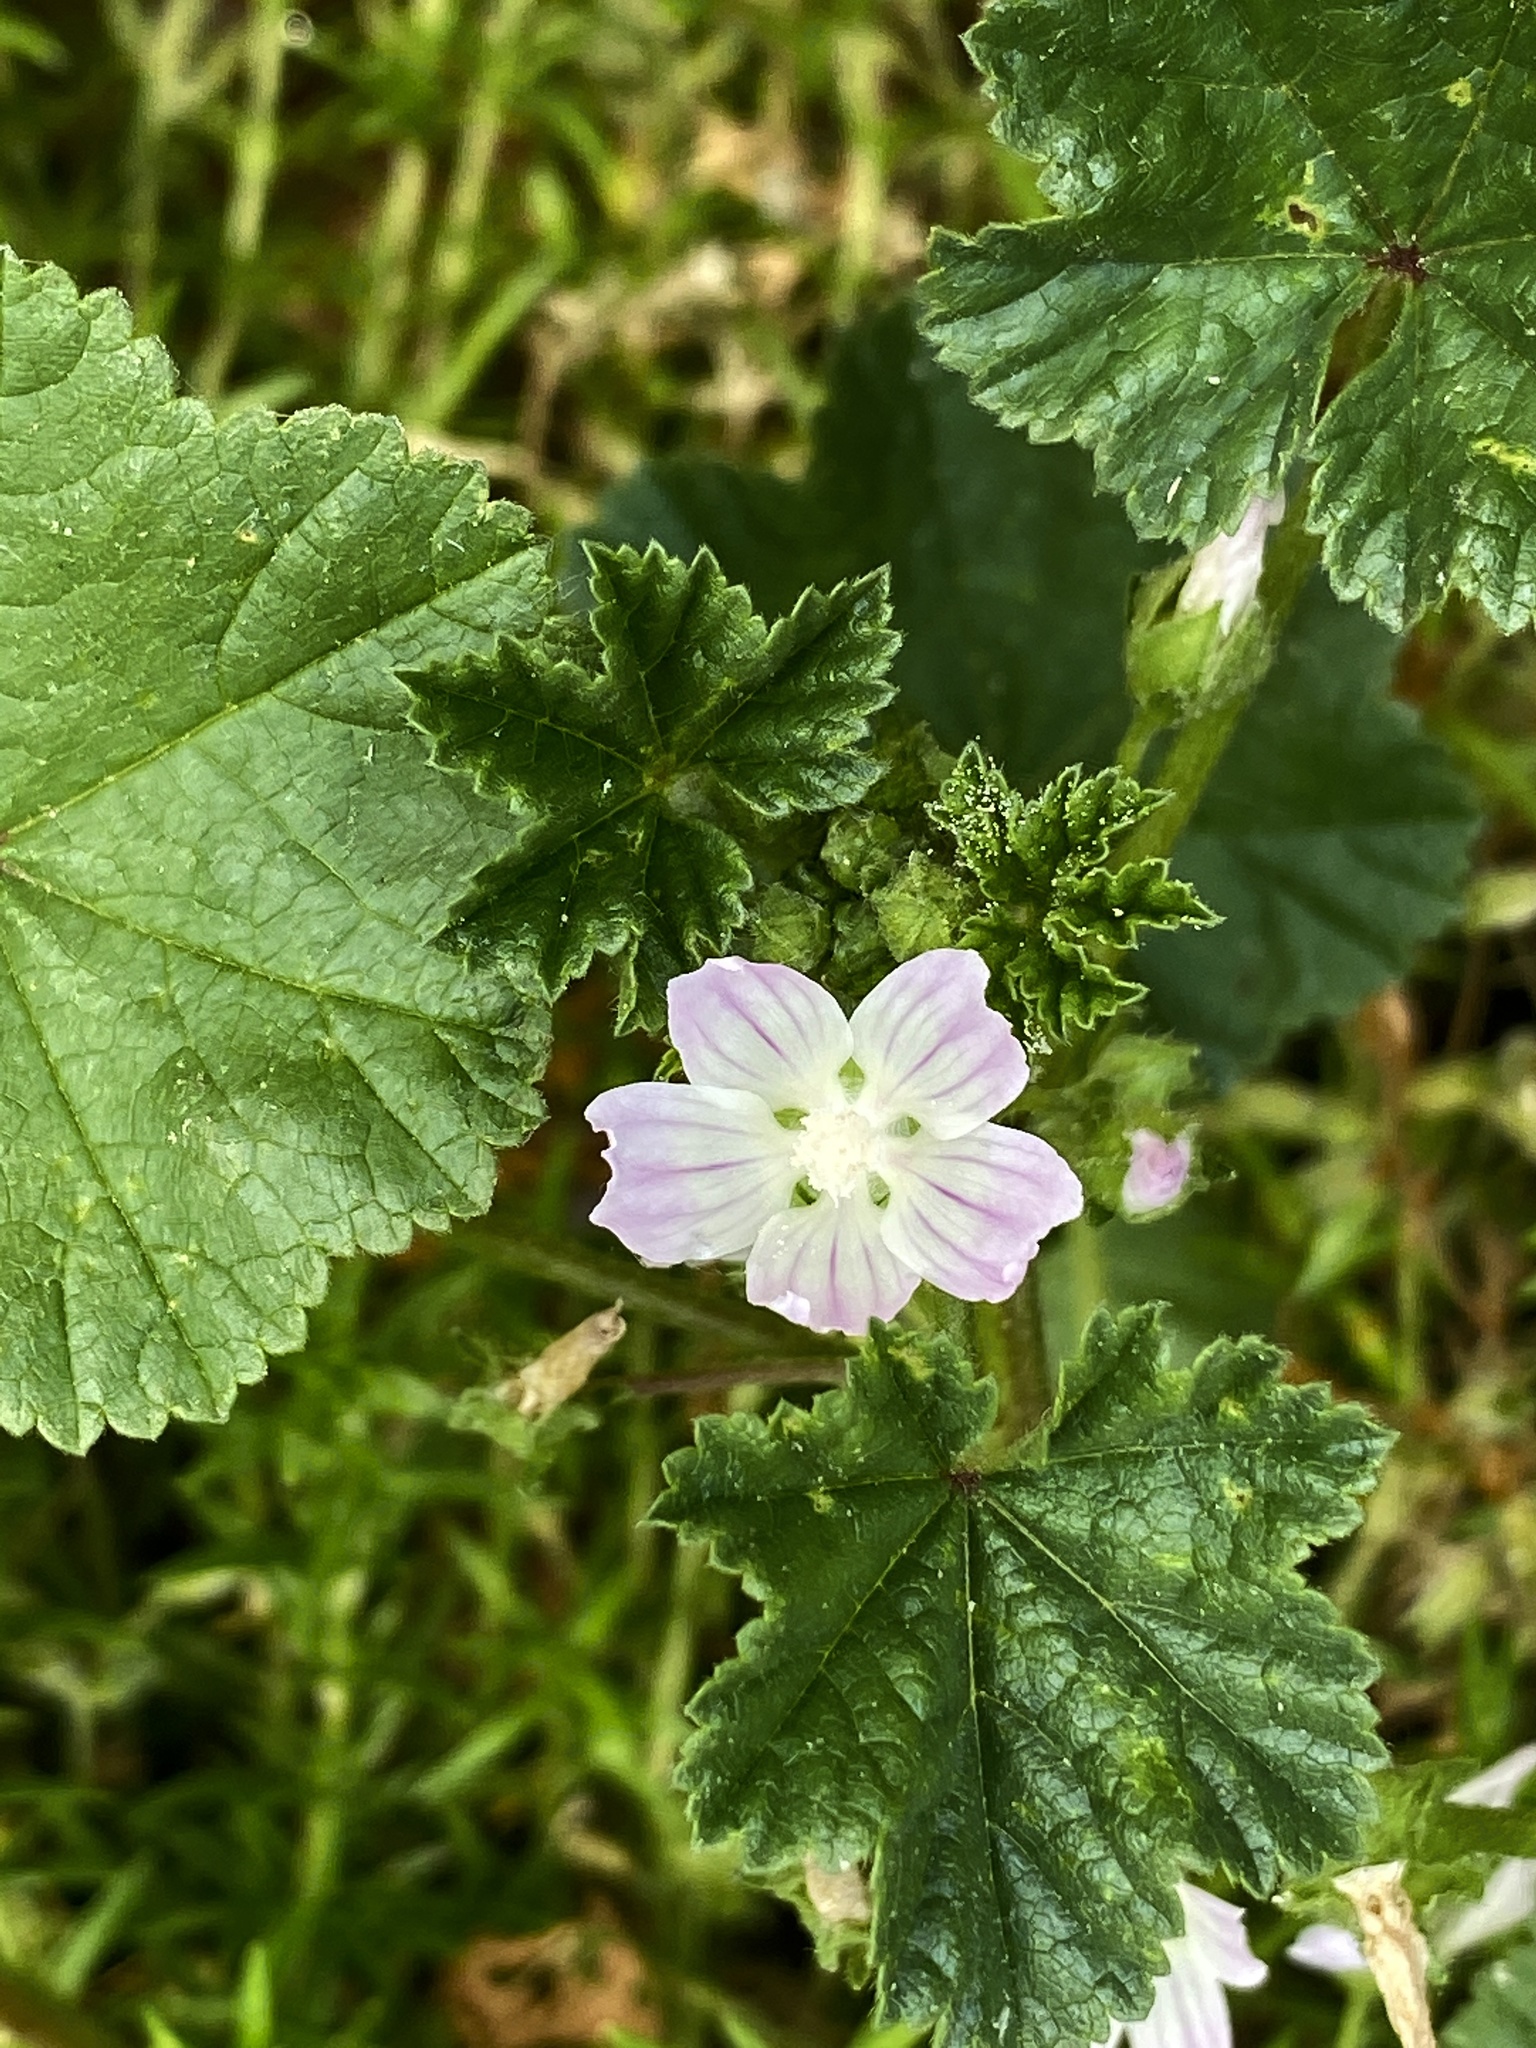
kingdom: Plantae
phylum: Tracheophyta
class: Magnoliopsida
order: Malvales
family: Malvaceae
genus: Malva
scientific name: Malva neglecta
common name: Common mallow
